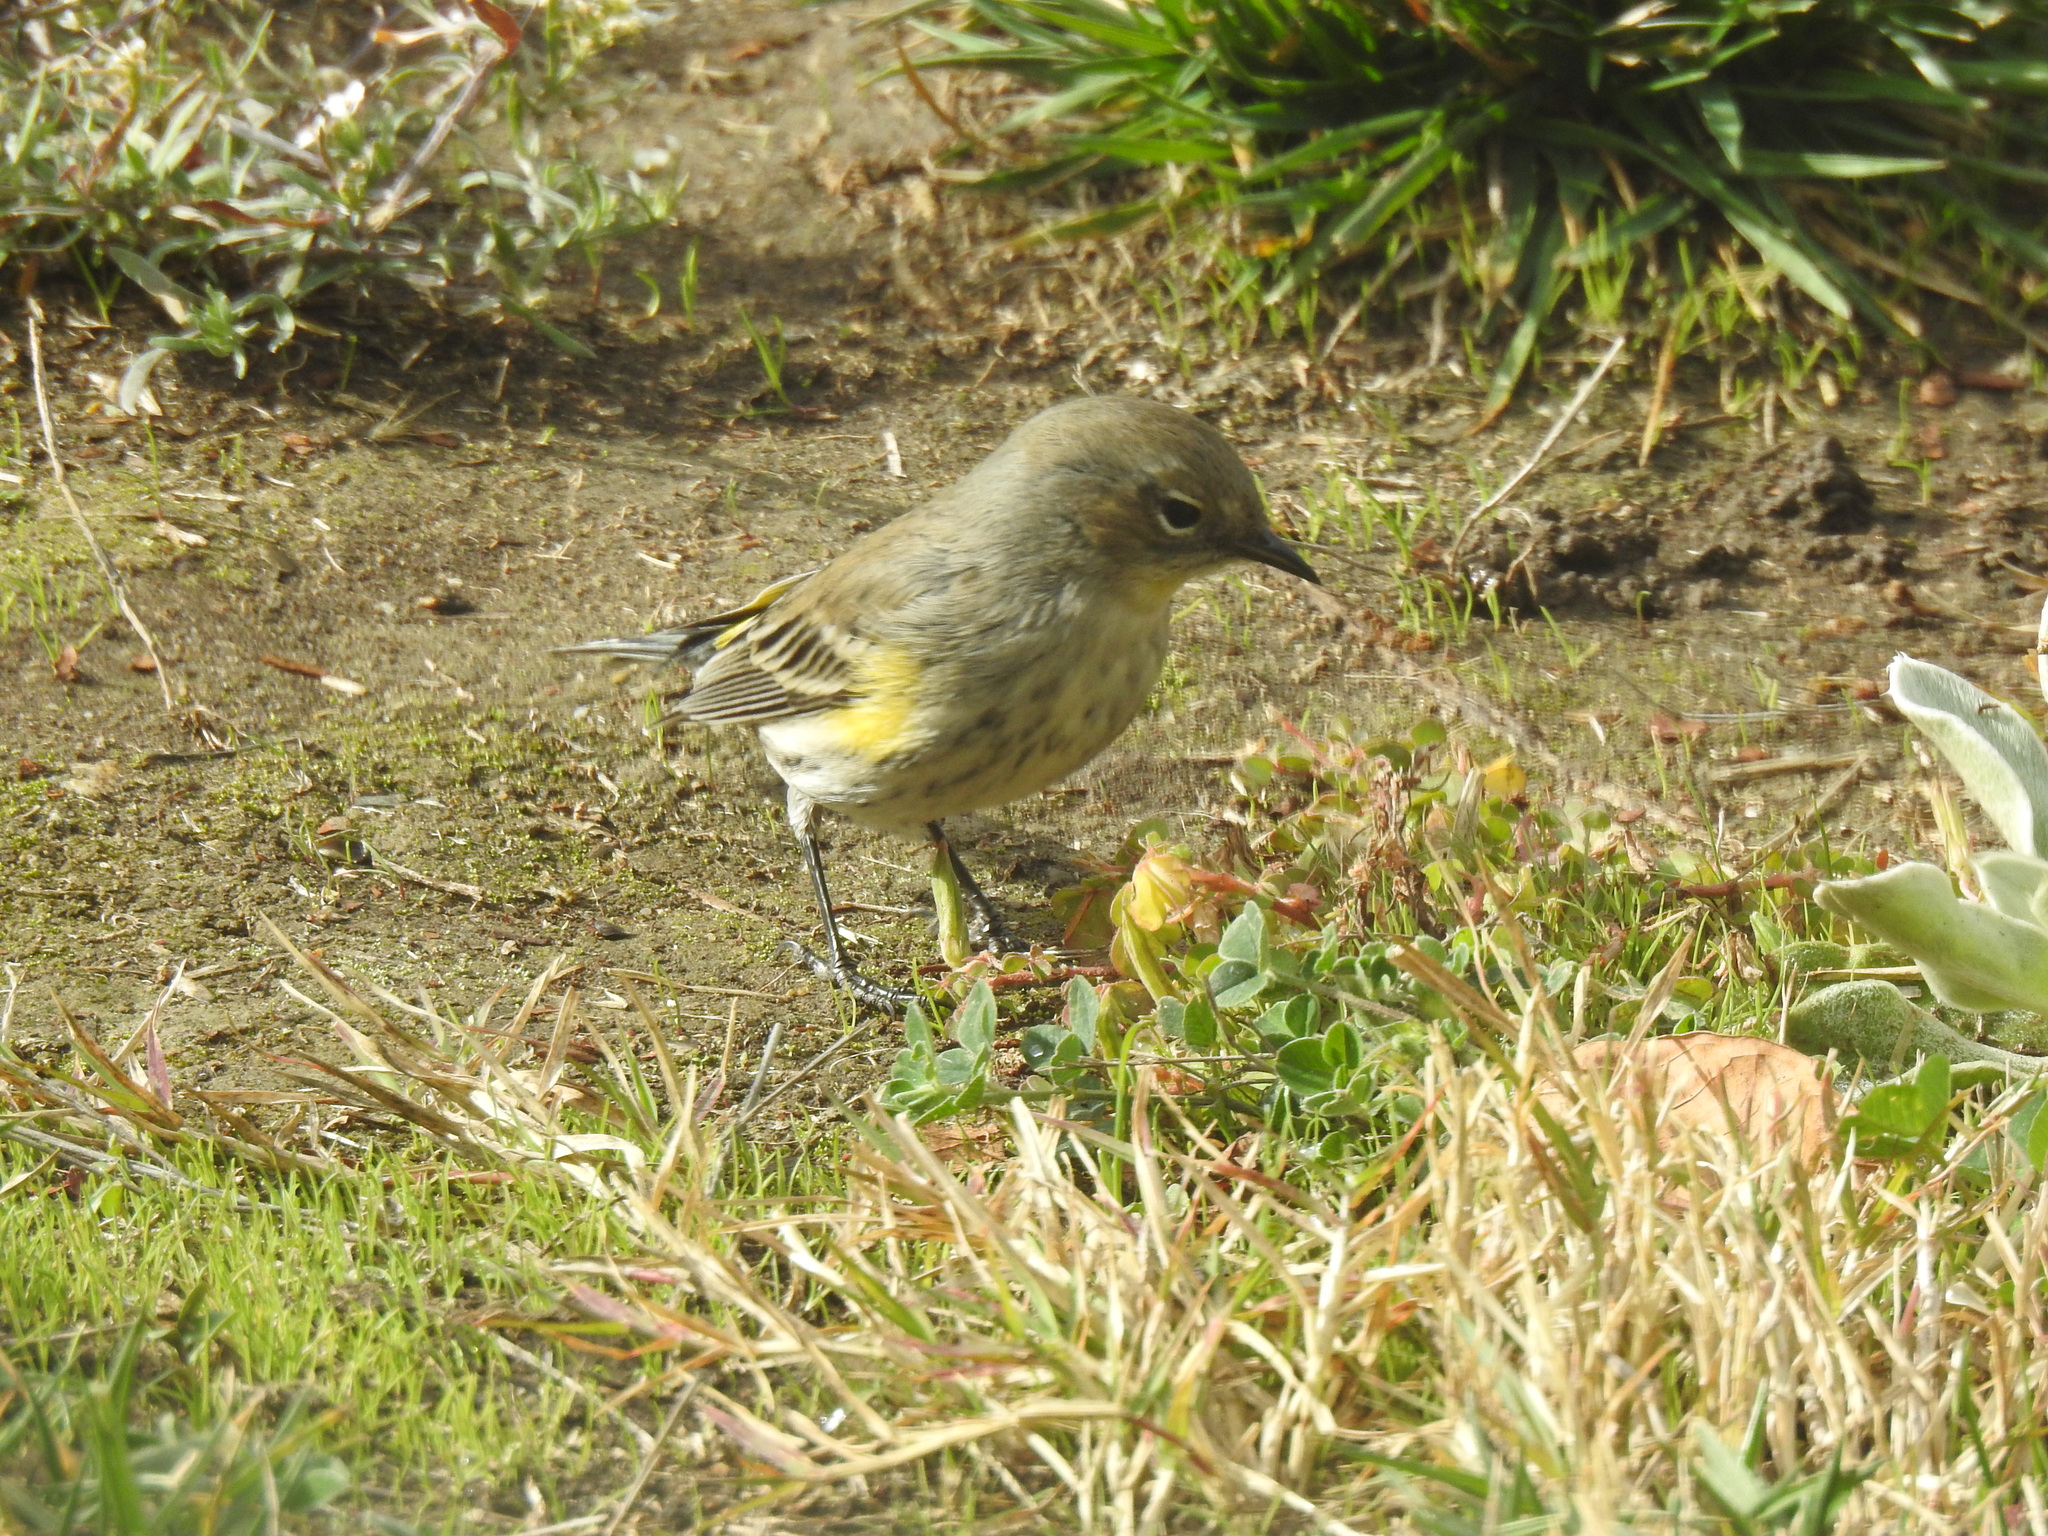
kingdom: Animalia
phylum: Chordata
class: Aves
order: Passeriformes
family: Parulidae
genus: Setophaga
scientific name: Setophaga coronata
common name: Myrtle warbler
